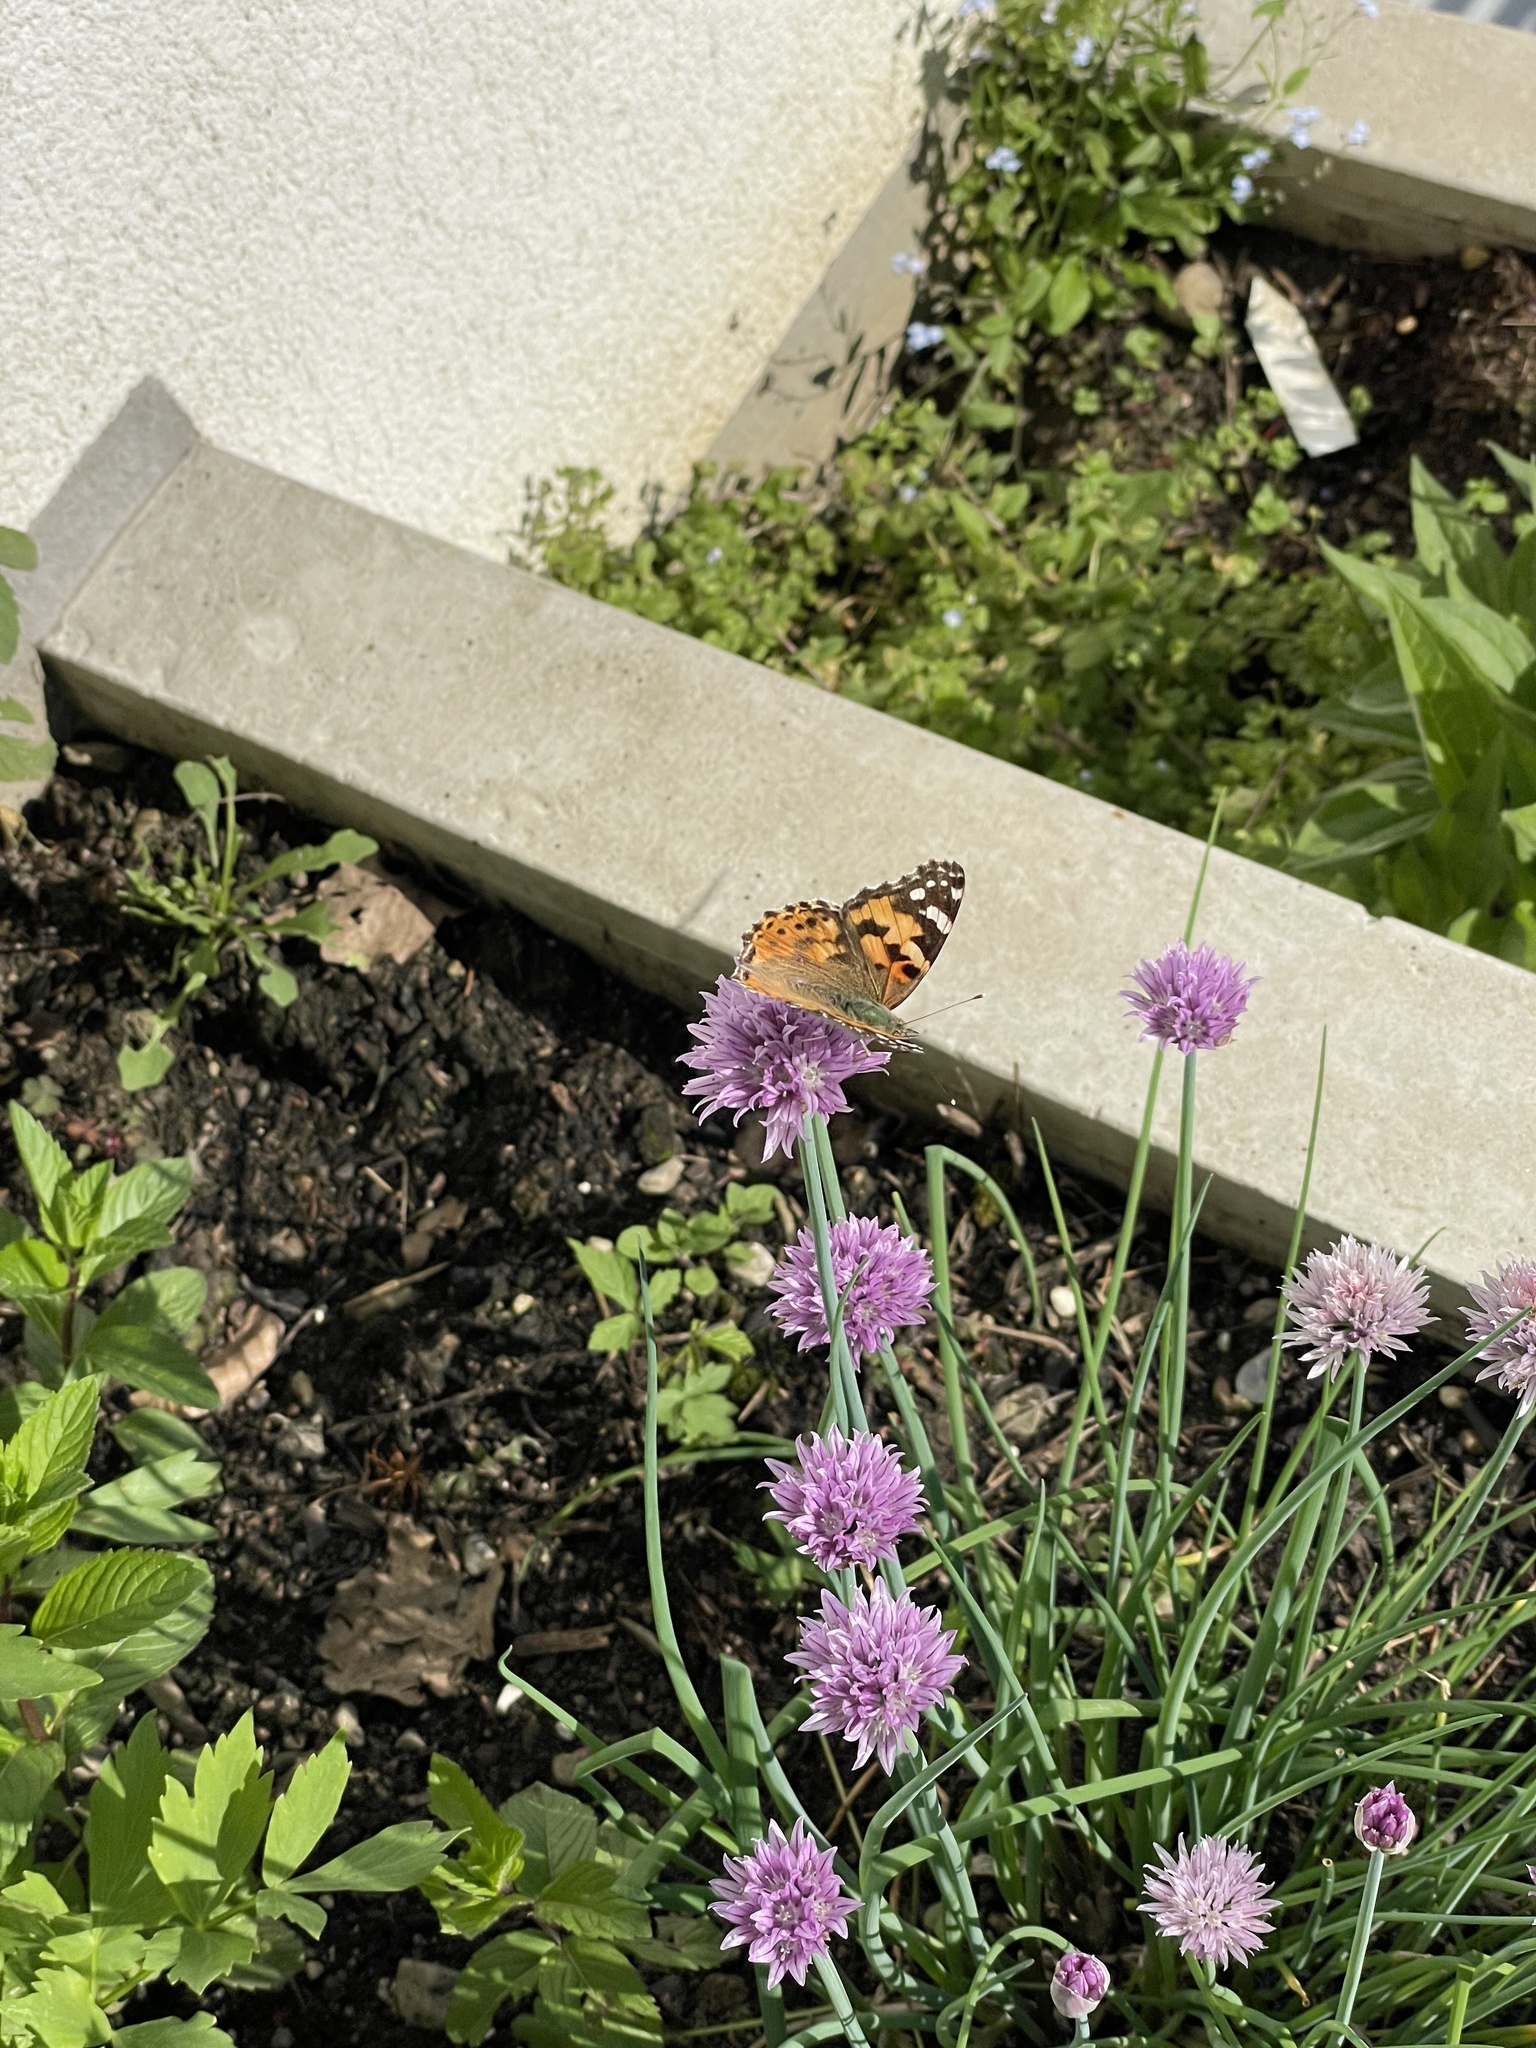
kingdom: Animalia
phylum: Arthropoda
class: Insecta
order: Lepidoptera
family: Nymphalidae
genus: Vanessa
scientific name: Vanessa cardui
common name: Painted lady
